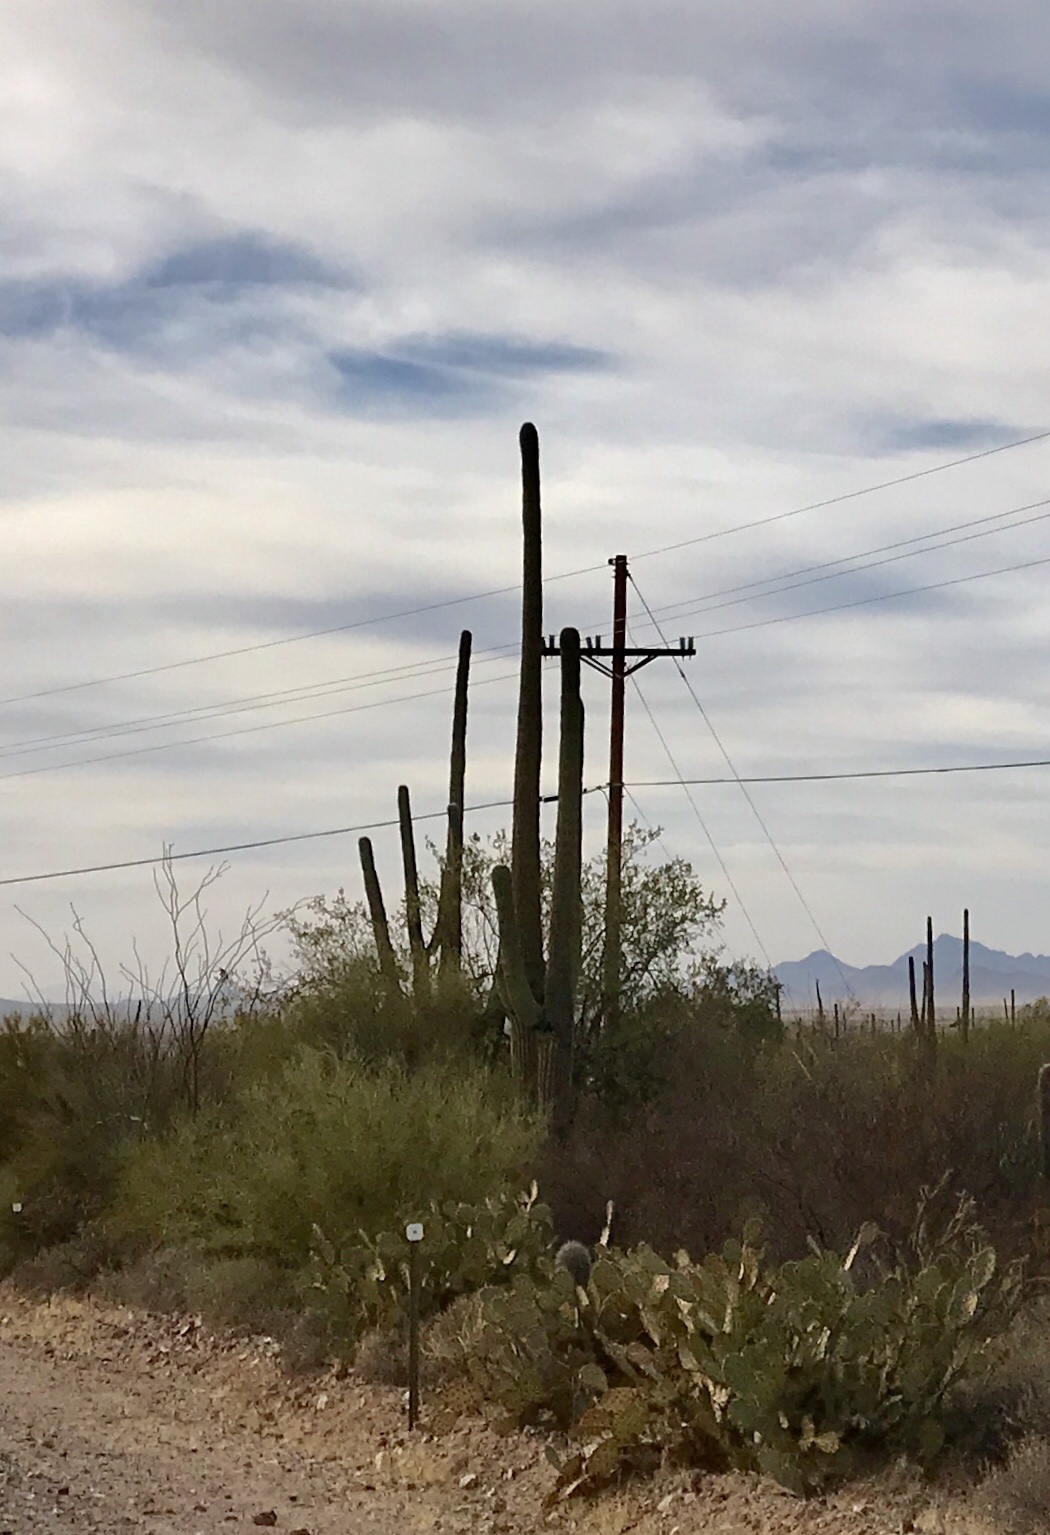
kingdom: Plantae
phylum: Tracheophyta
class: Magnoliopsida
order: Caryophyllales
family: Cactaceae
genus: Carnegiea
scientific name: Carnegiea gigantea
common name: Saguaro
